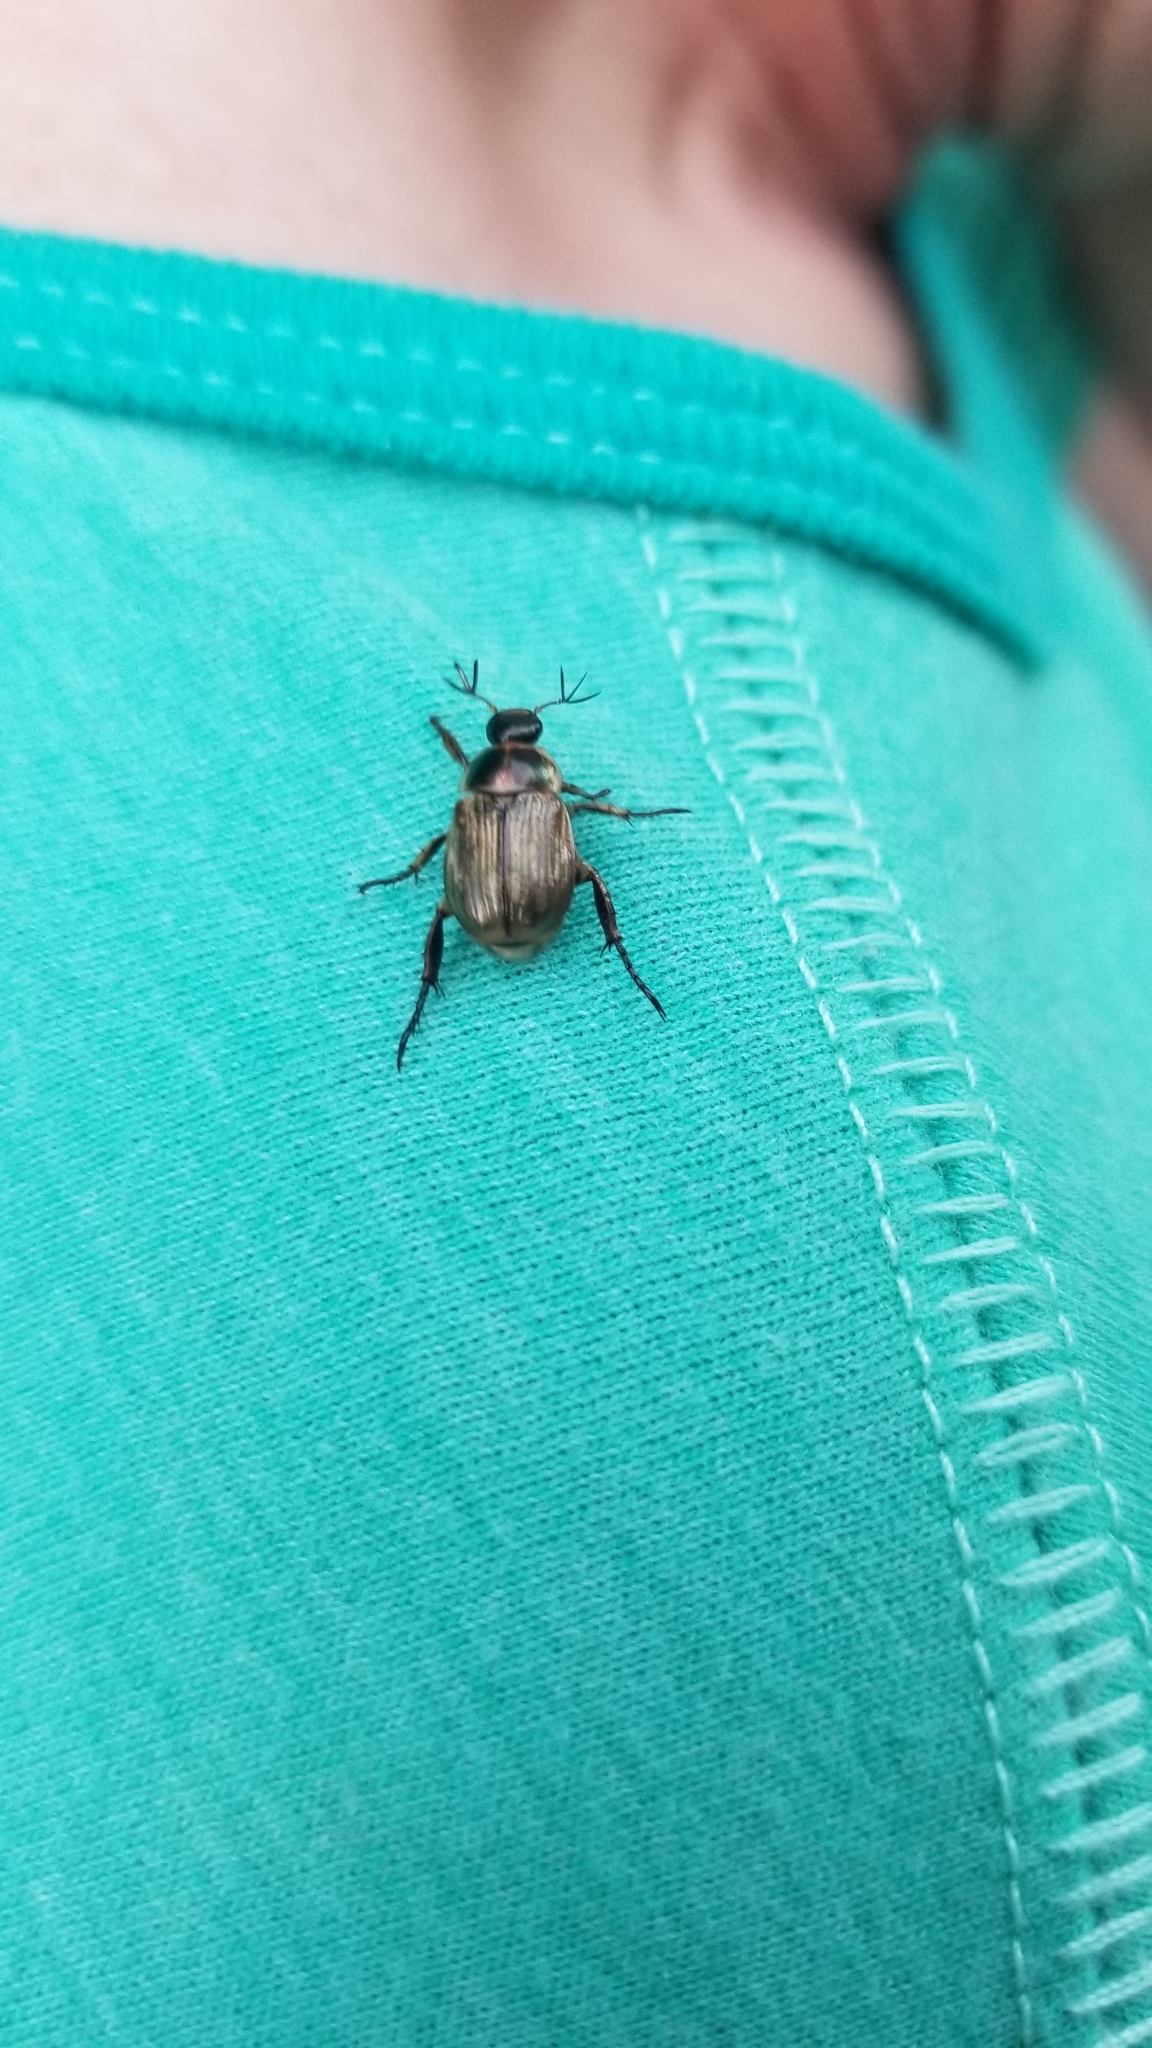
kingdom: Animalia
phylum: Arthropoda
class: Insecta
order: Coleoptera
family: Scarabaeidae
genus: Exomala
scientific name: Exomala orientalis
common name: Oriental beetle
